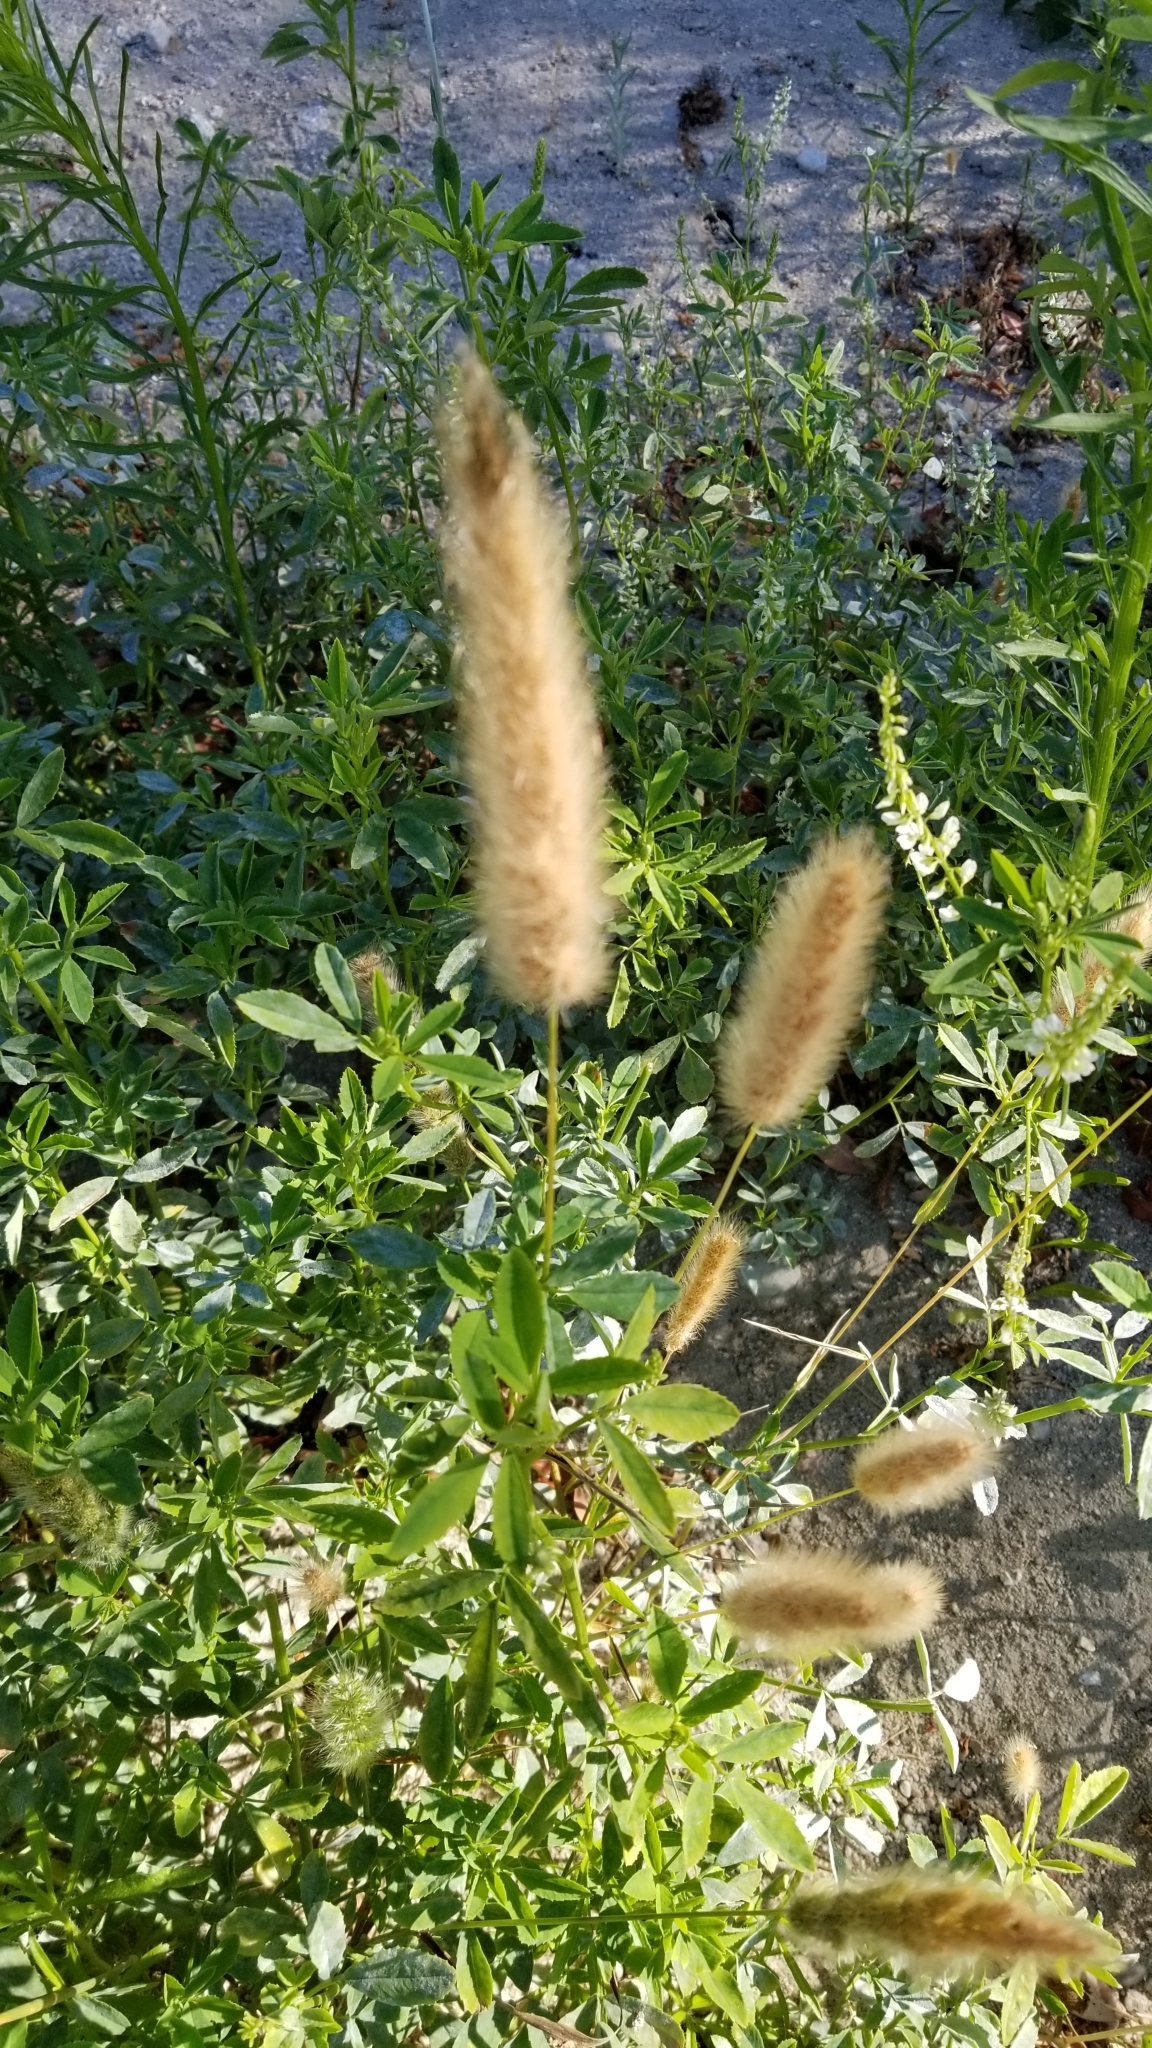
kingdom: Plantae
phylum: Tracheophyta
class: Liliopsida
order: Poales
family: Poaceae
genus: Polypogon
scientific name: Polypogon monspeliensis
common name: Annual rabbitsfoot grass
